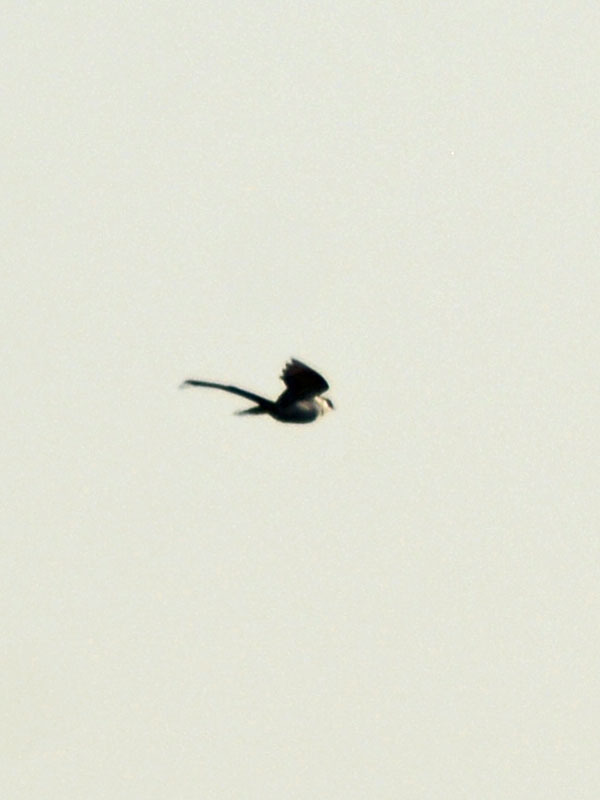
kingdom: Animalia
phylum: Chordata
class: Aves
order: Passeriformes
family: Tyrannidae
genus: Tyrannus
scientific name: Tyrannus savana
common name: Fork-tailed flycatcher
